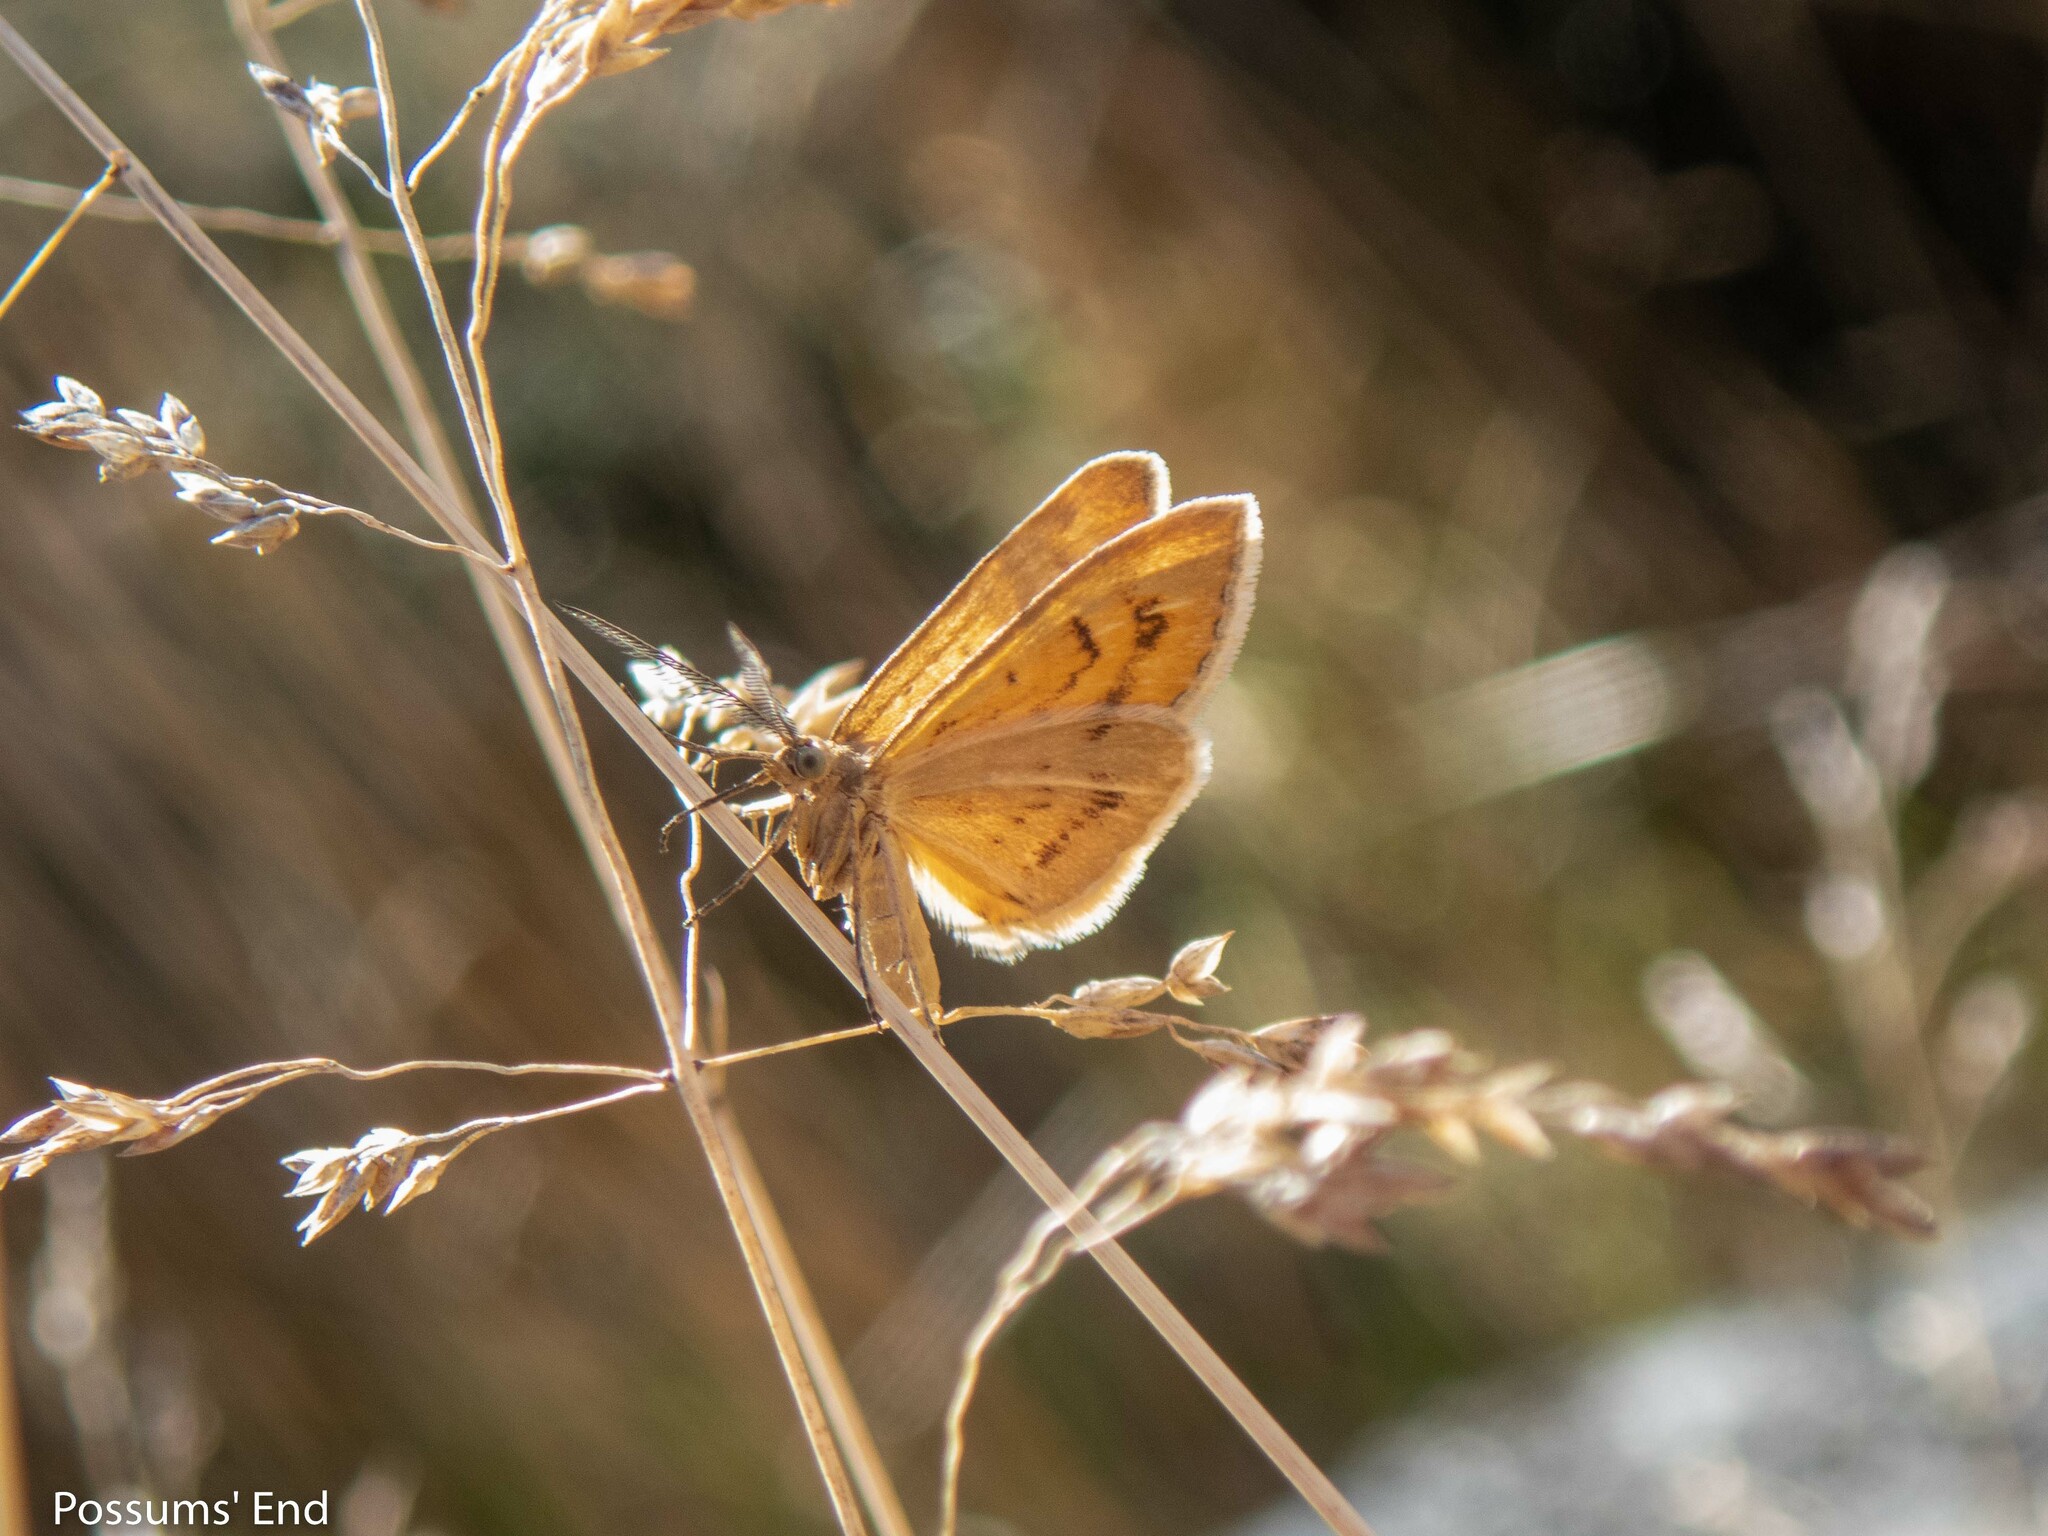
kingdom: Animalia
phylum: Arthropoda
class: Insecta
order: Lepidoptera
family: Geometridae
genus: Asaphodes
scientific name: Asaphodes abrogata
